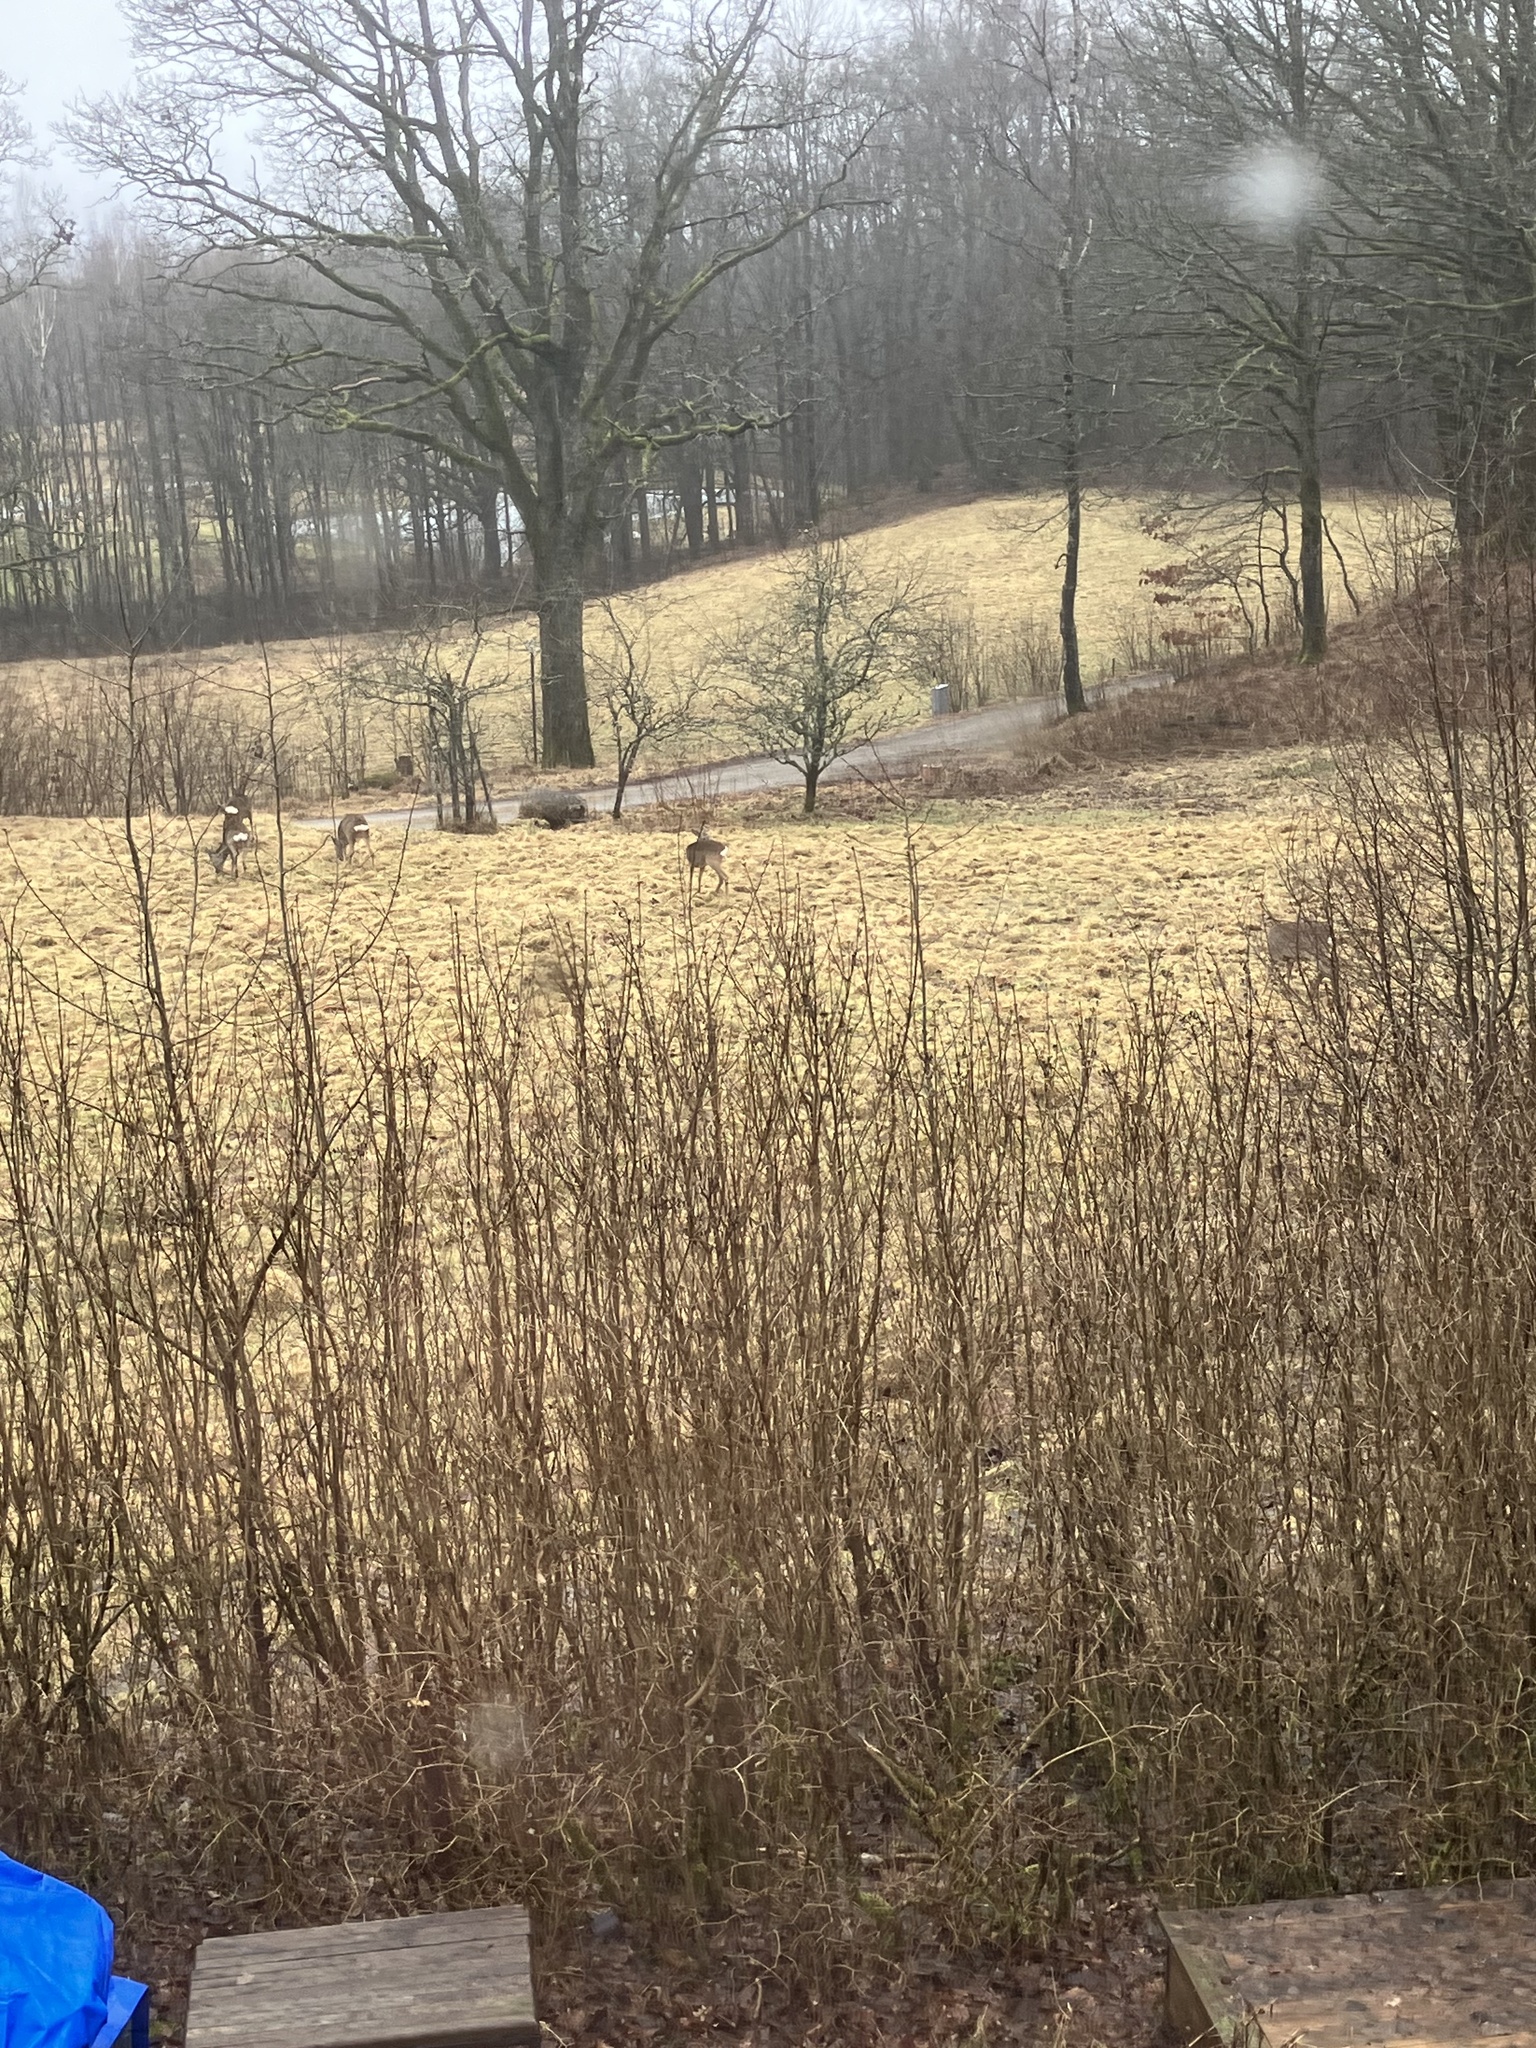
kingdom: Animalia
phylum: Chordata
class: Mammalia
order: Artiodactyla
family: Cervidae
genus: Capreolus
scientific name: Capreolus capreolus
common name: Western roe deer
